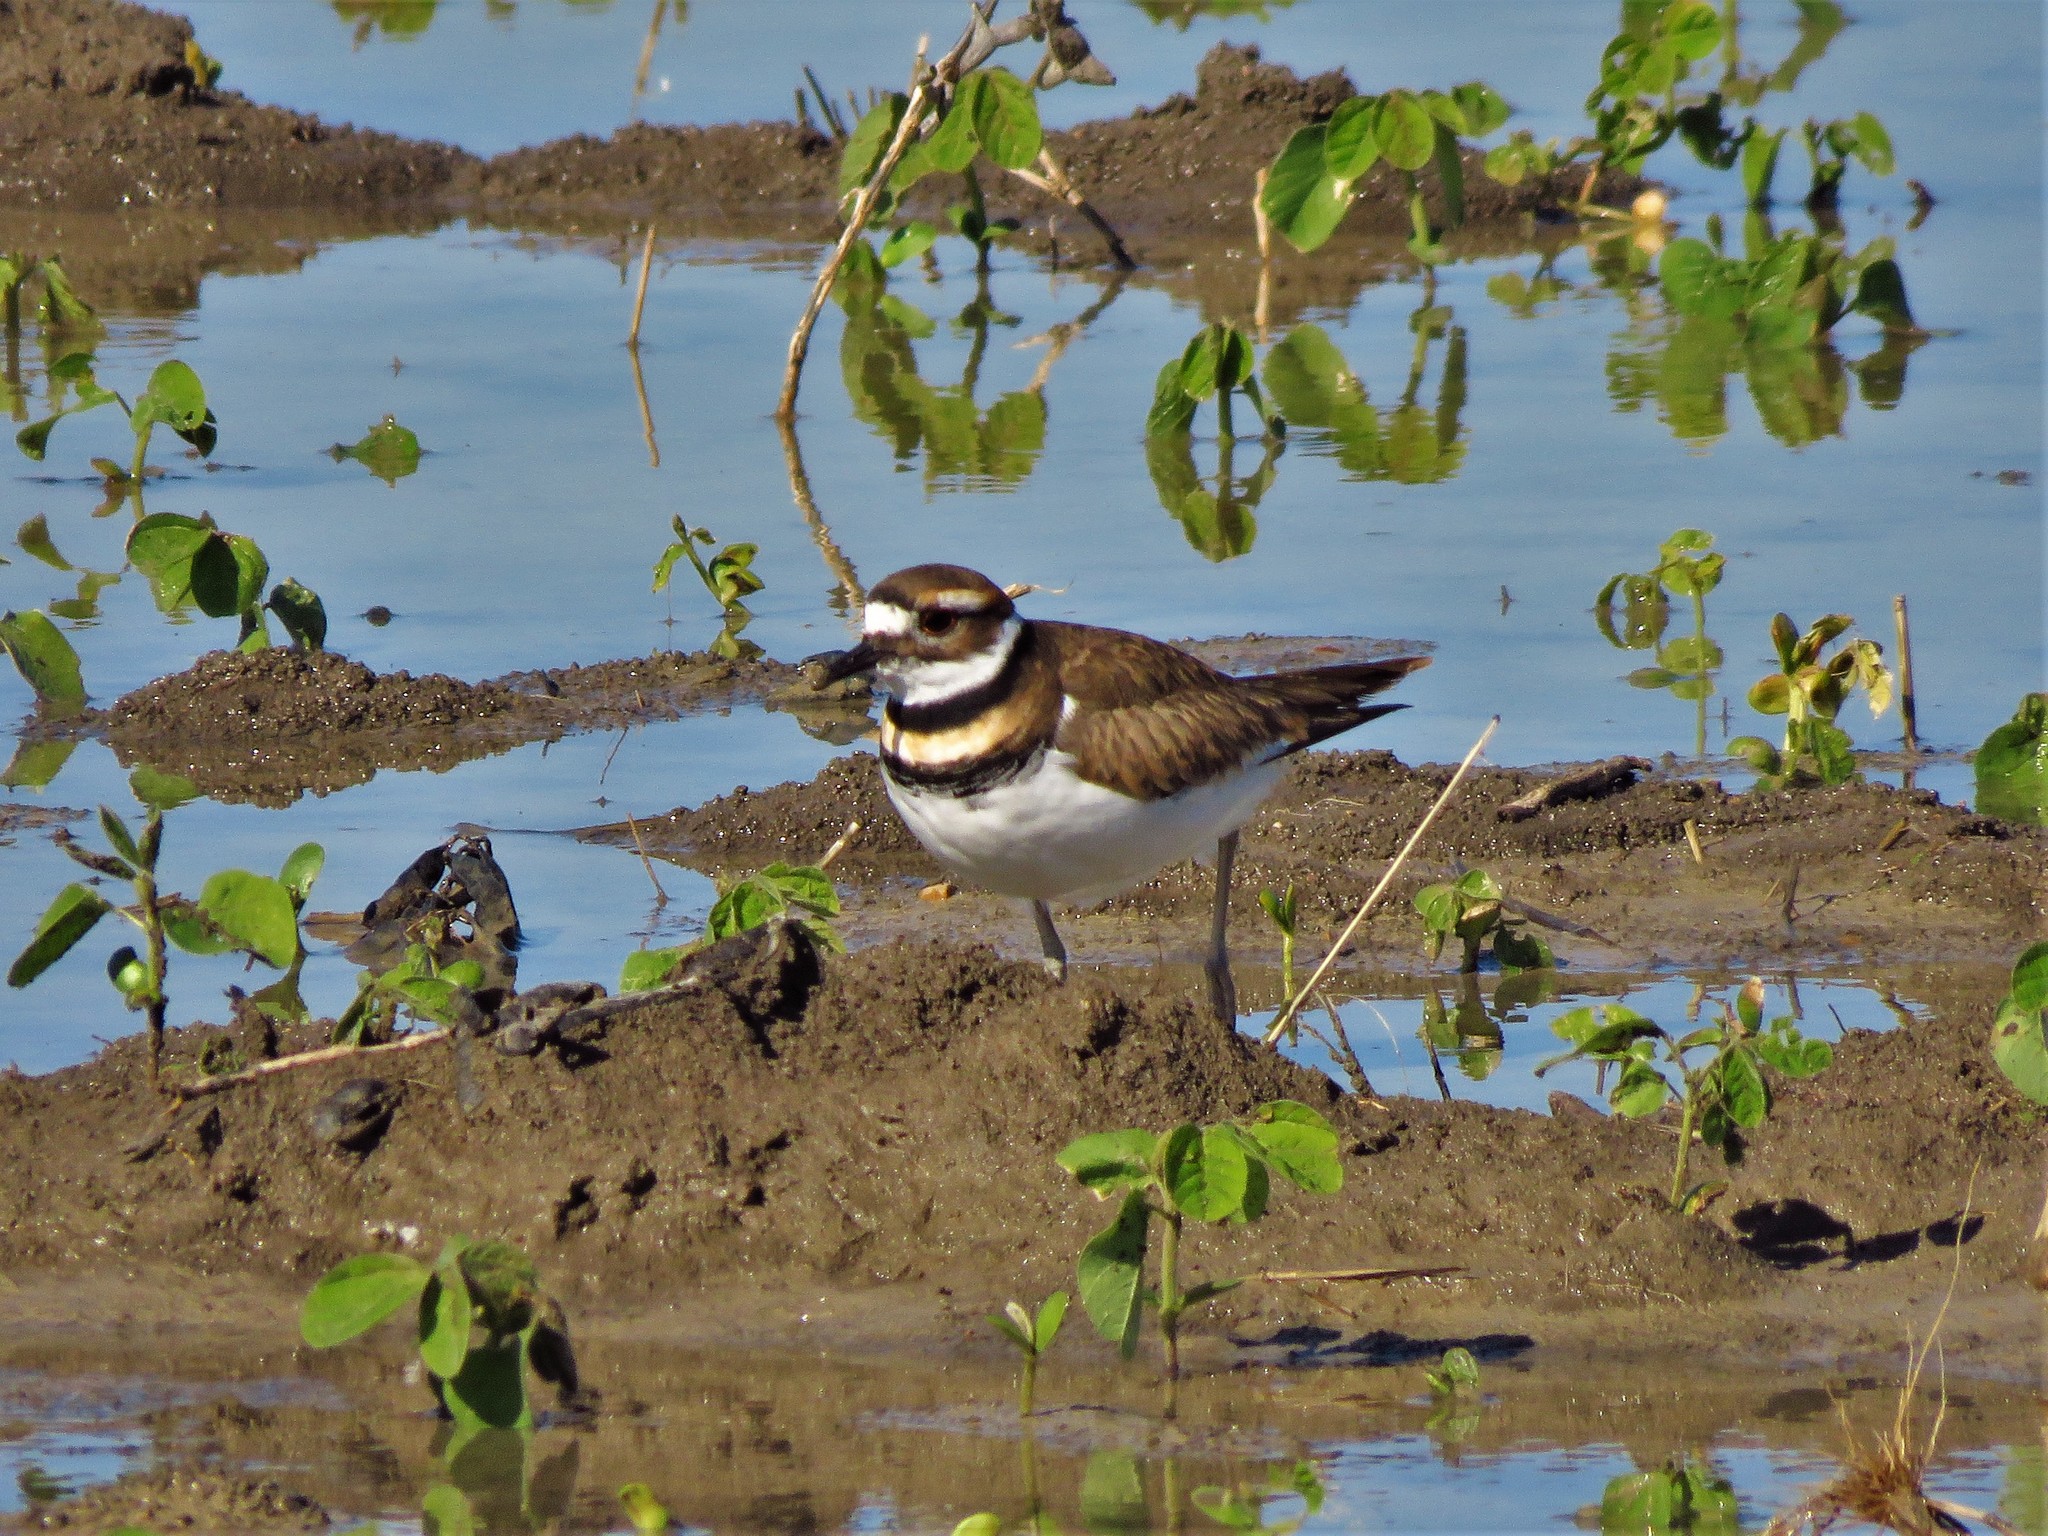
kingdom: Animalia
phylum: Chordata
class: Aves
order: Charadriiformes
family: Charadriidae
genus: Charadrius
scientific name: Charadrius vociferus
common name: Killdeer
